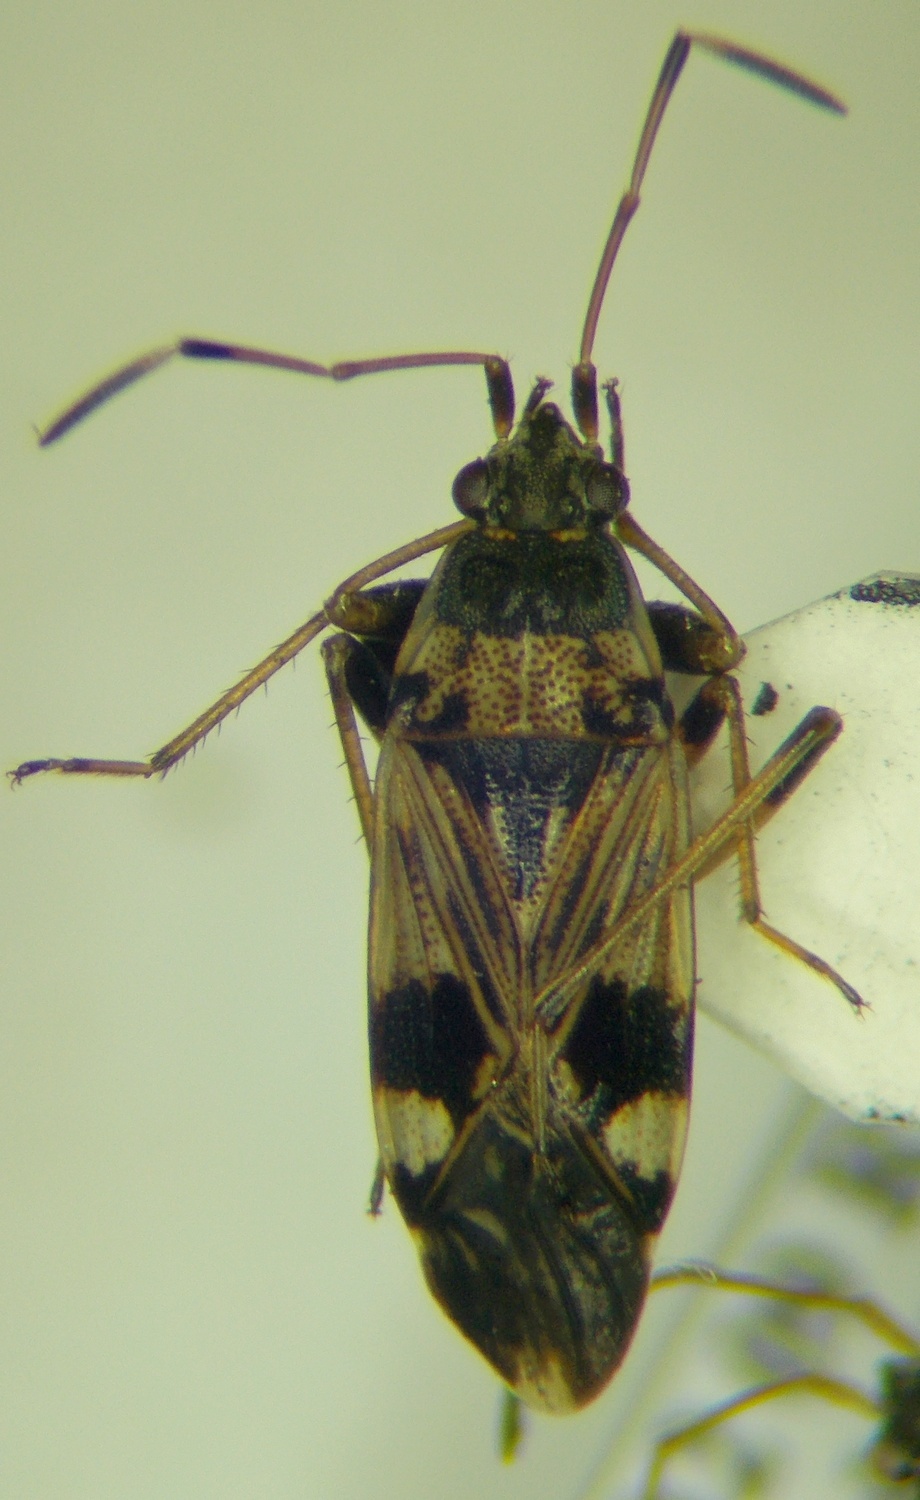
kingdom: Animalia
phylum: Arthropoda
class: Insecta
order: Hemiptera
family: Rhyparochromidae
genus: Beosus
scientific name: Beosus maritimus
